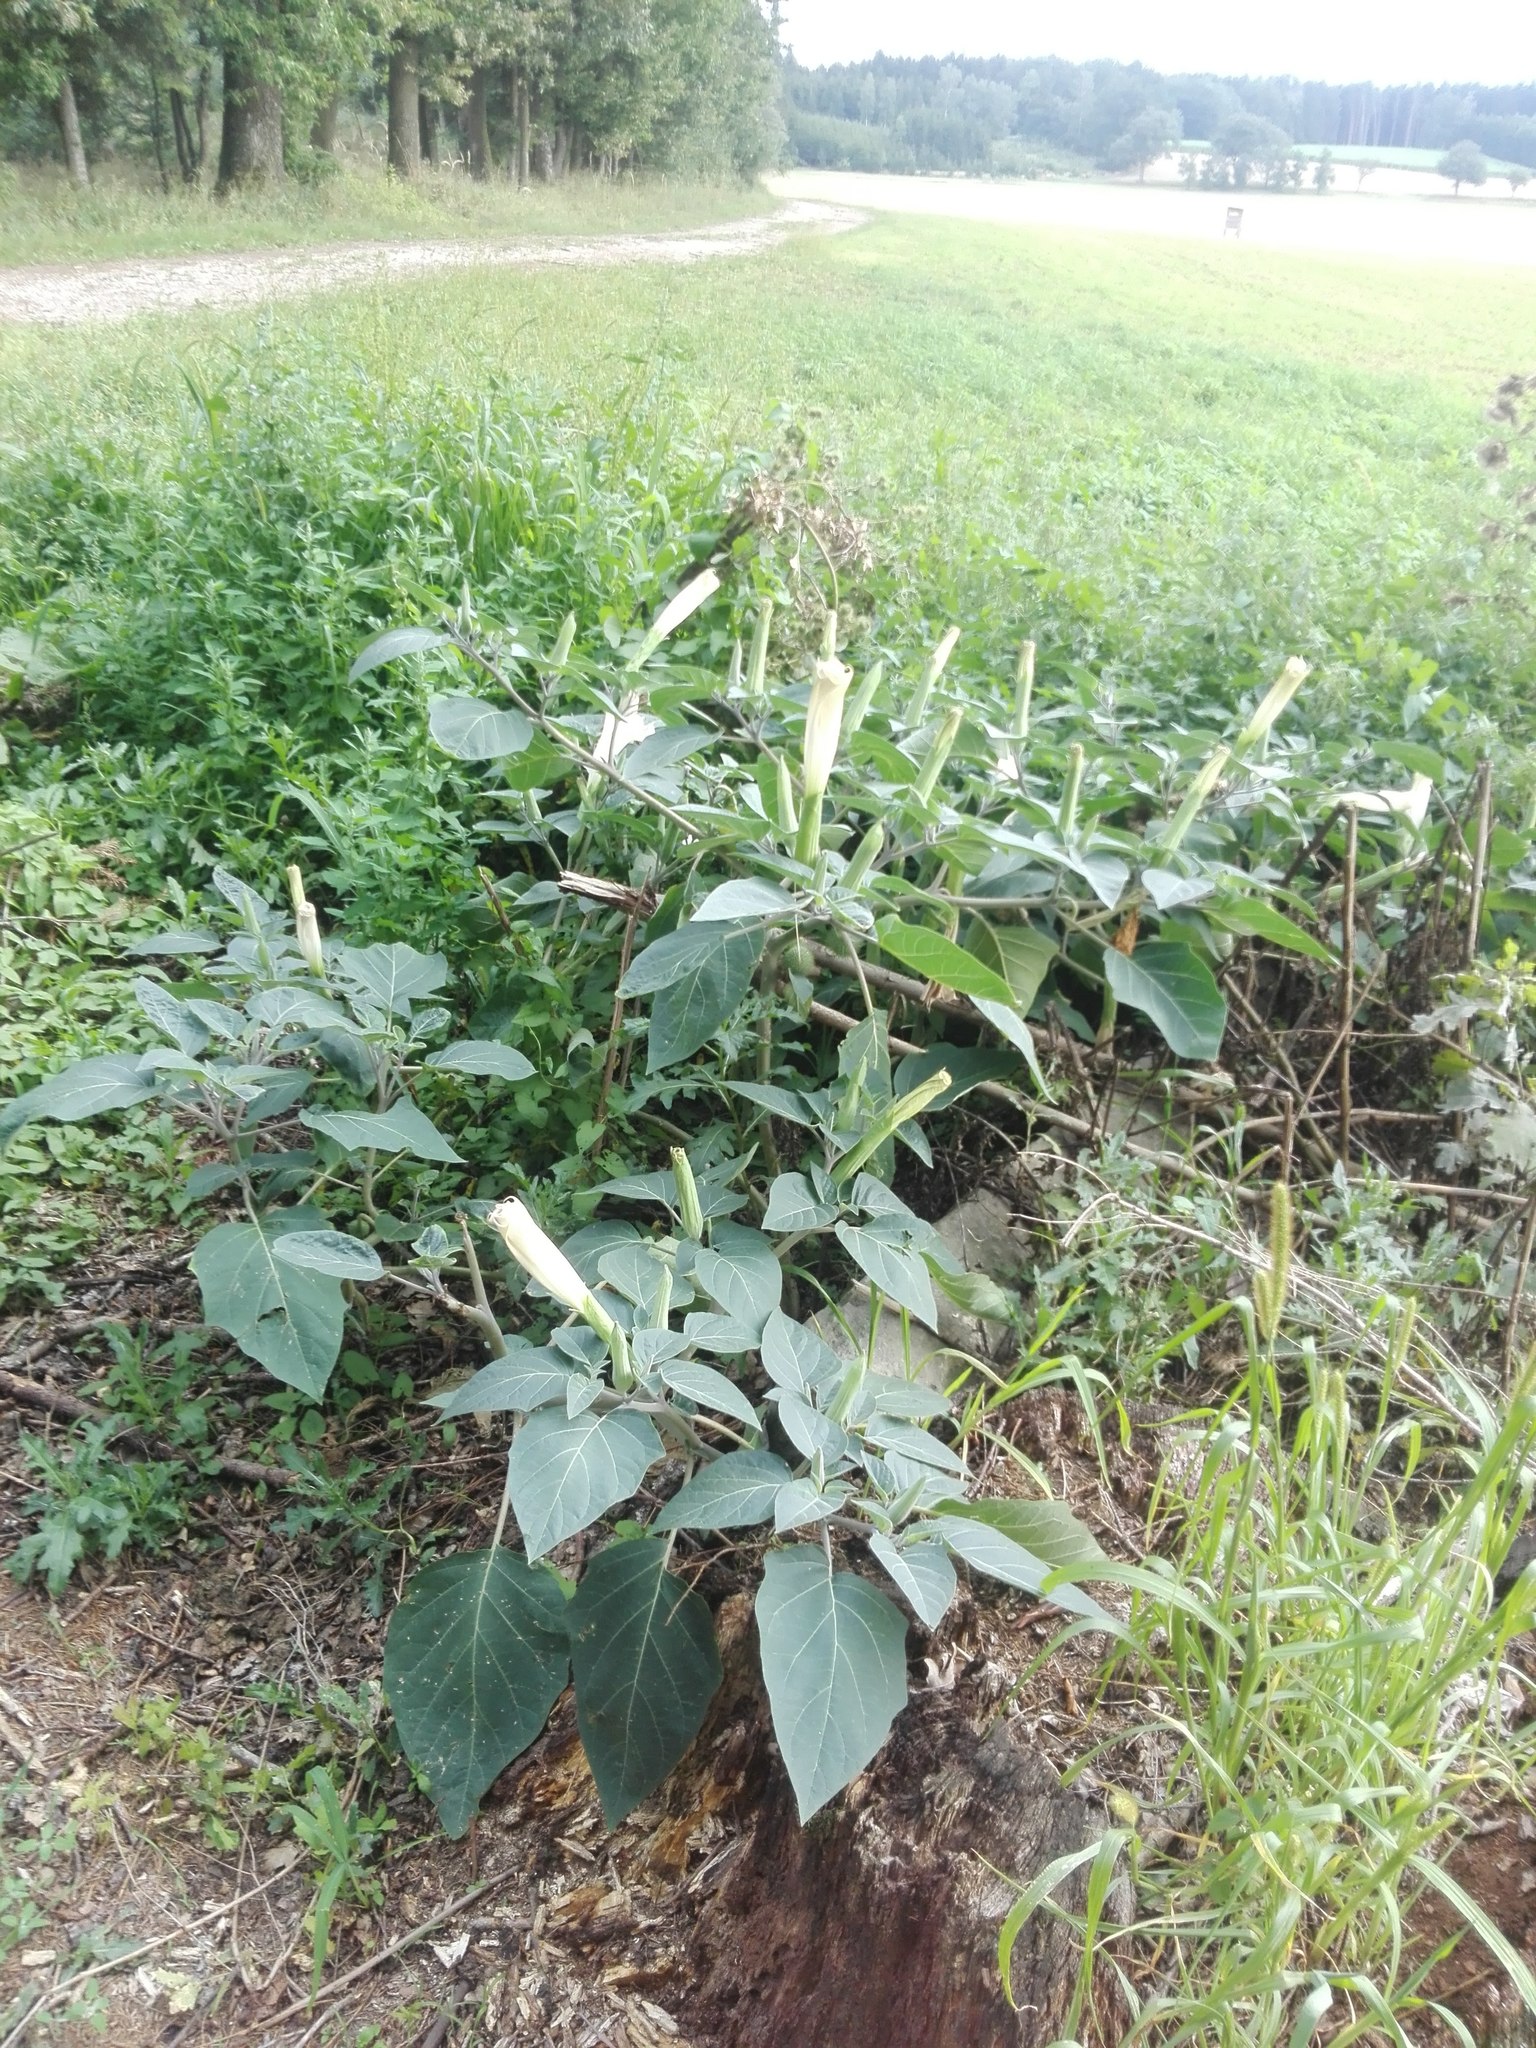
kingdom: Plantae
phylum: Tracheophyta
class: Magnoliopsida
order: Solanales
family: Solanaceae
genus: Datura
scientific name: Datura innoxia
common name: Downy thorn-apple
